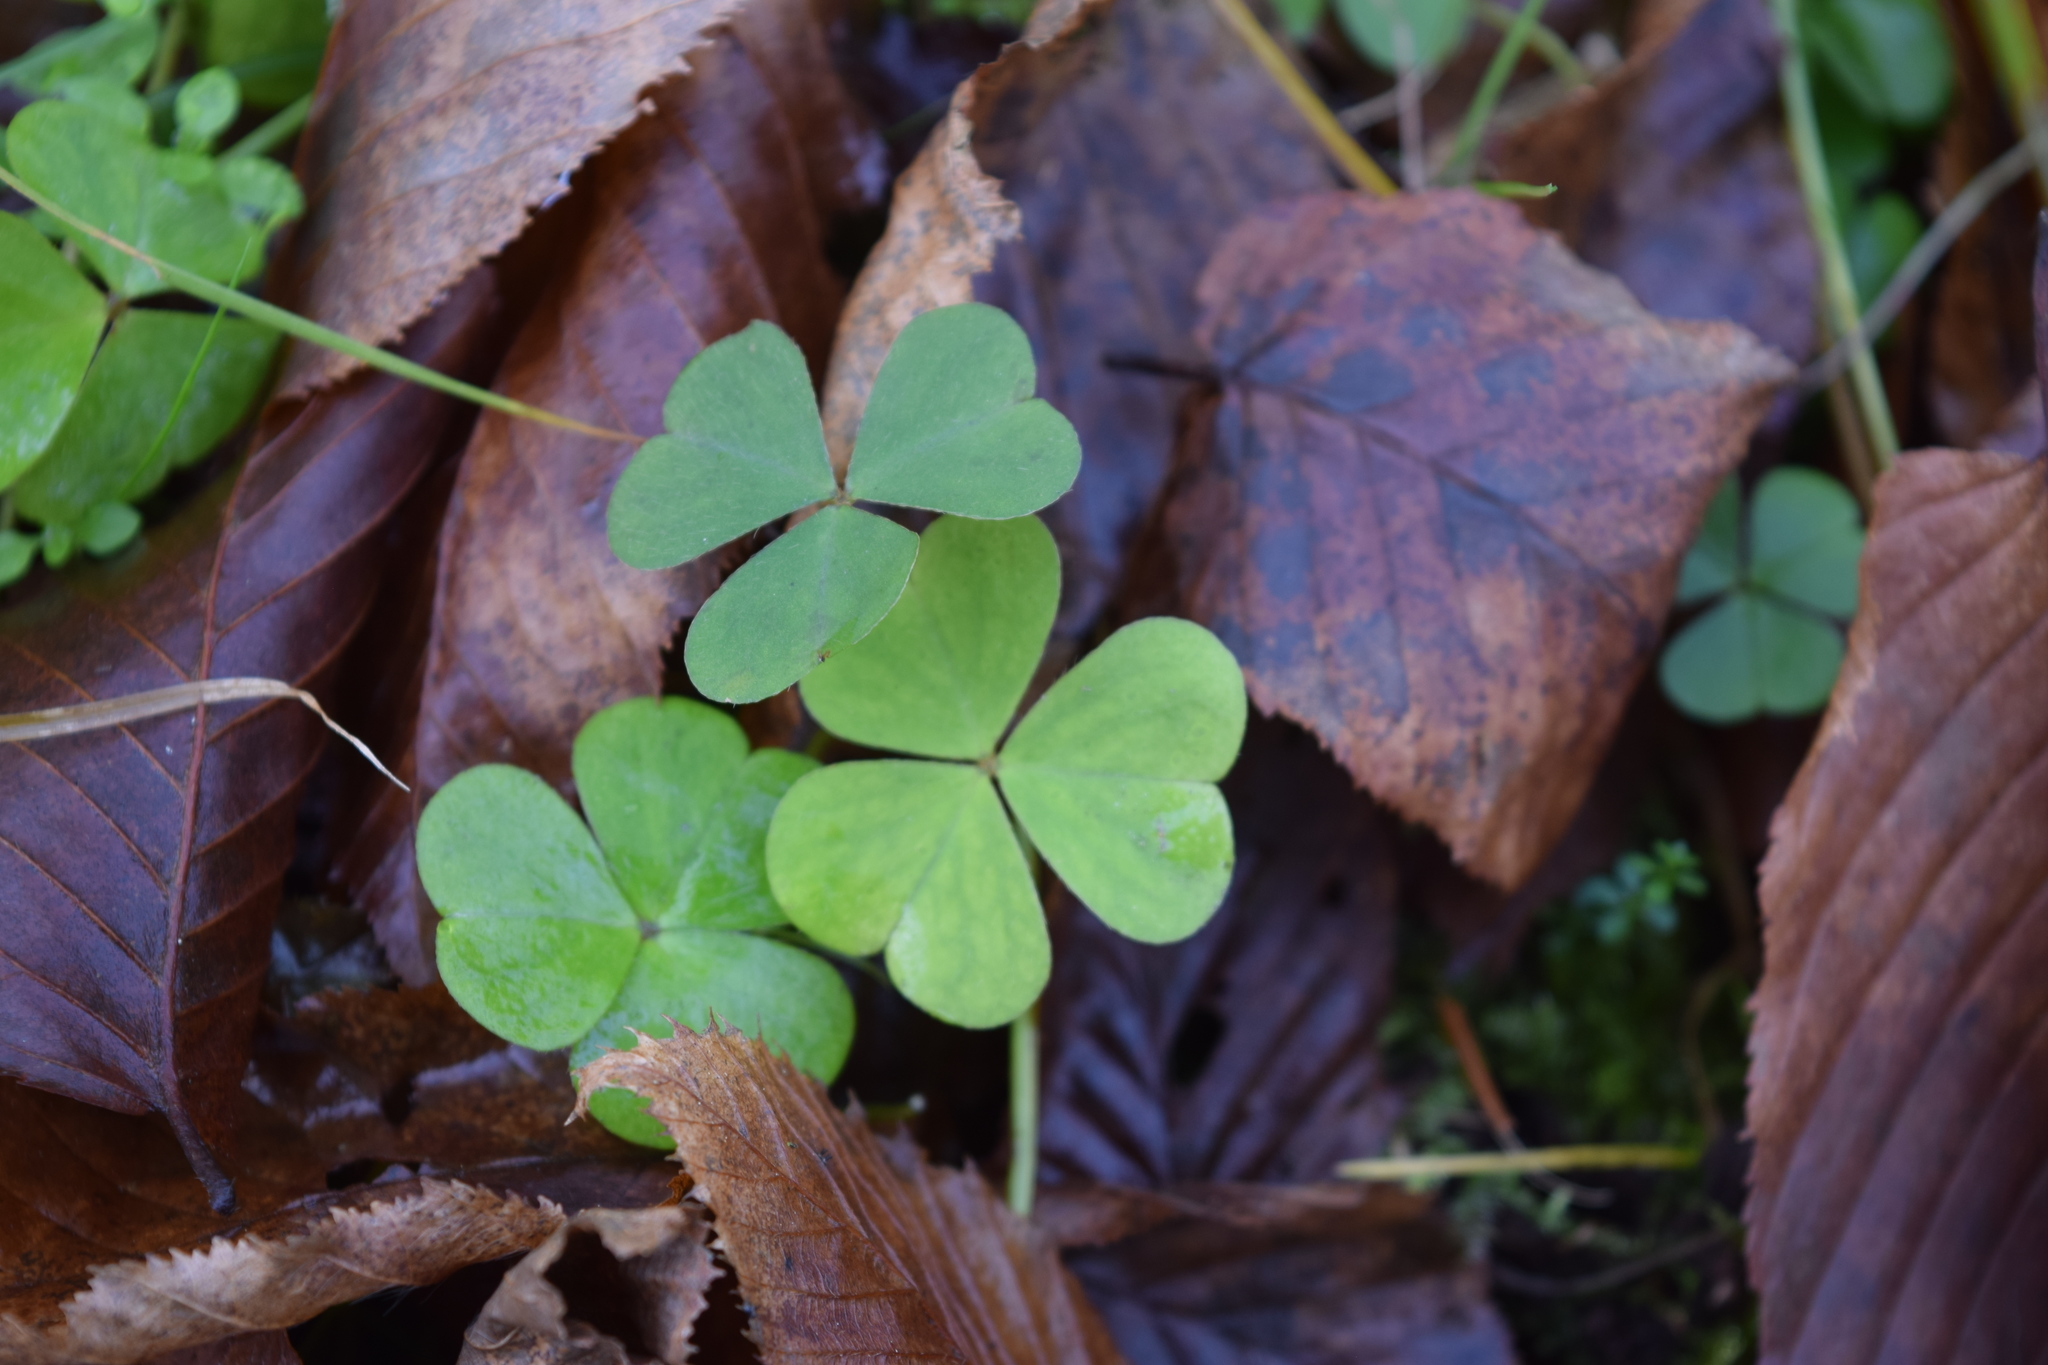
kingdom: Plantae
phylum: Tracheophyta
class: Magnoliopsida
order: Oxalidales
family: Oxalidaceae
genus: Oxalis
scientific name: Oxalis acetosella
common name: Wood-sorrel
